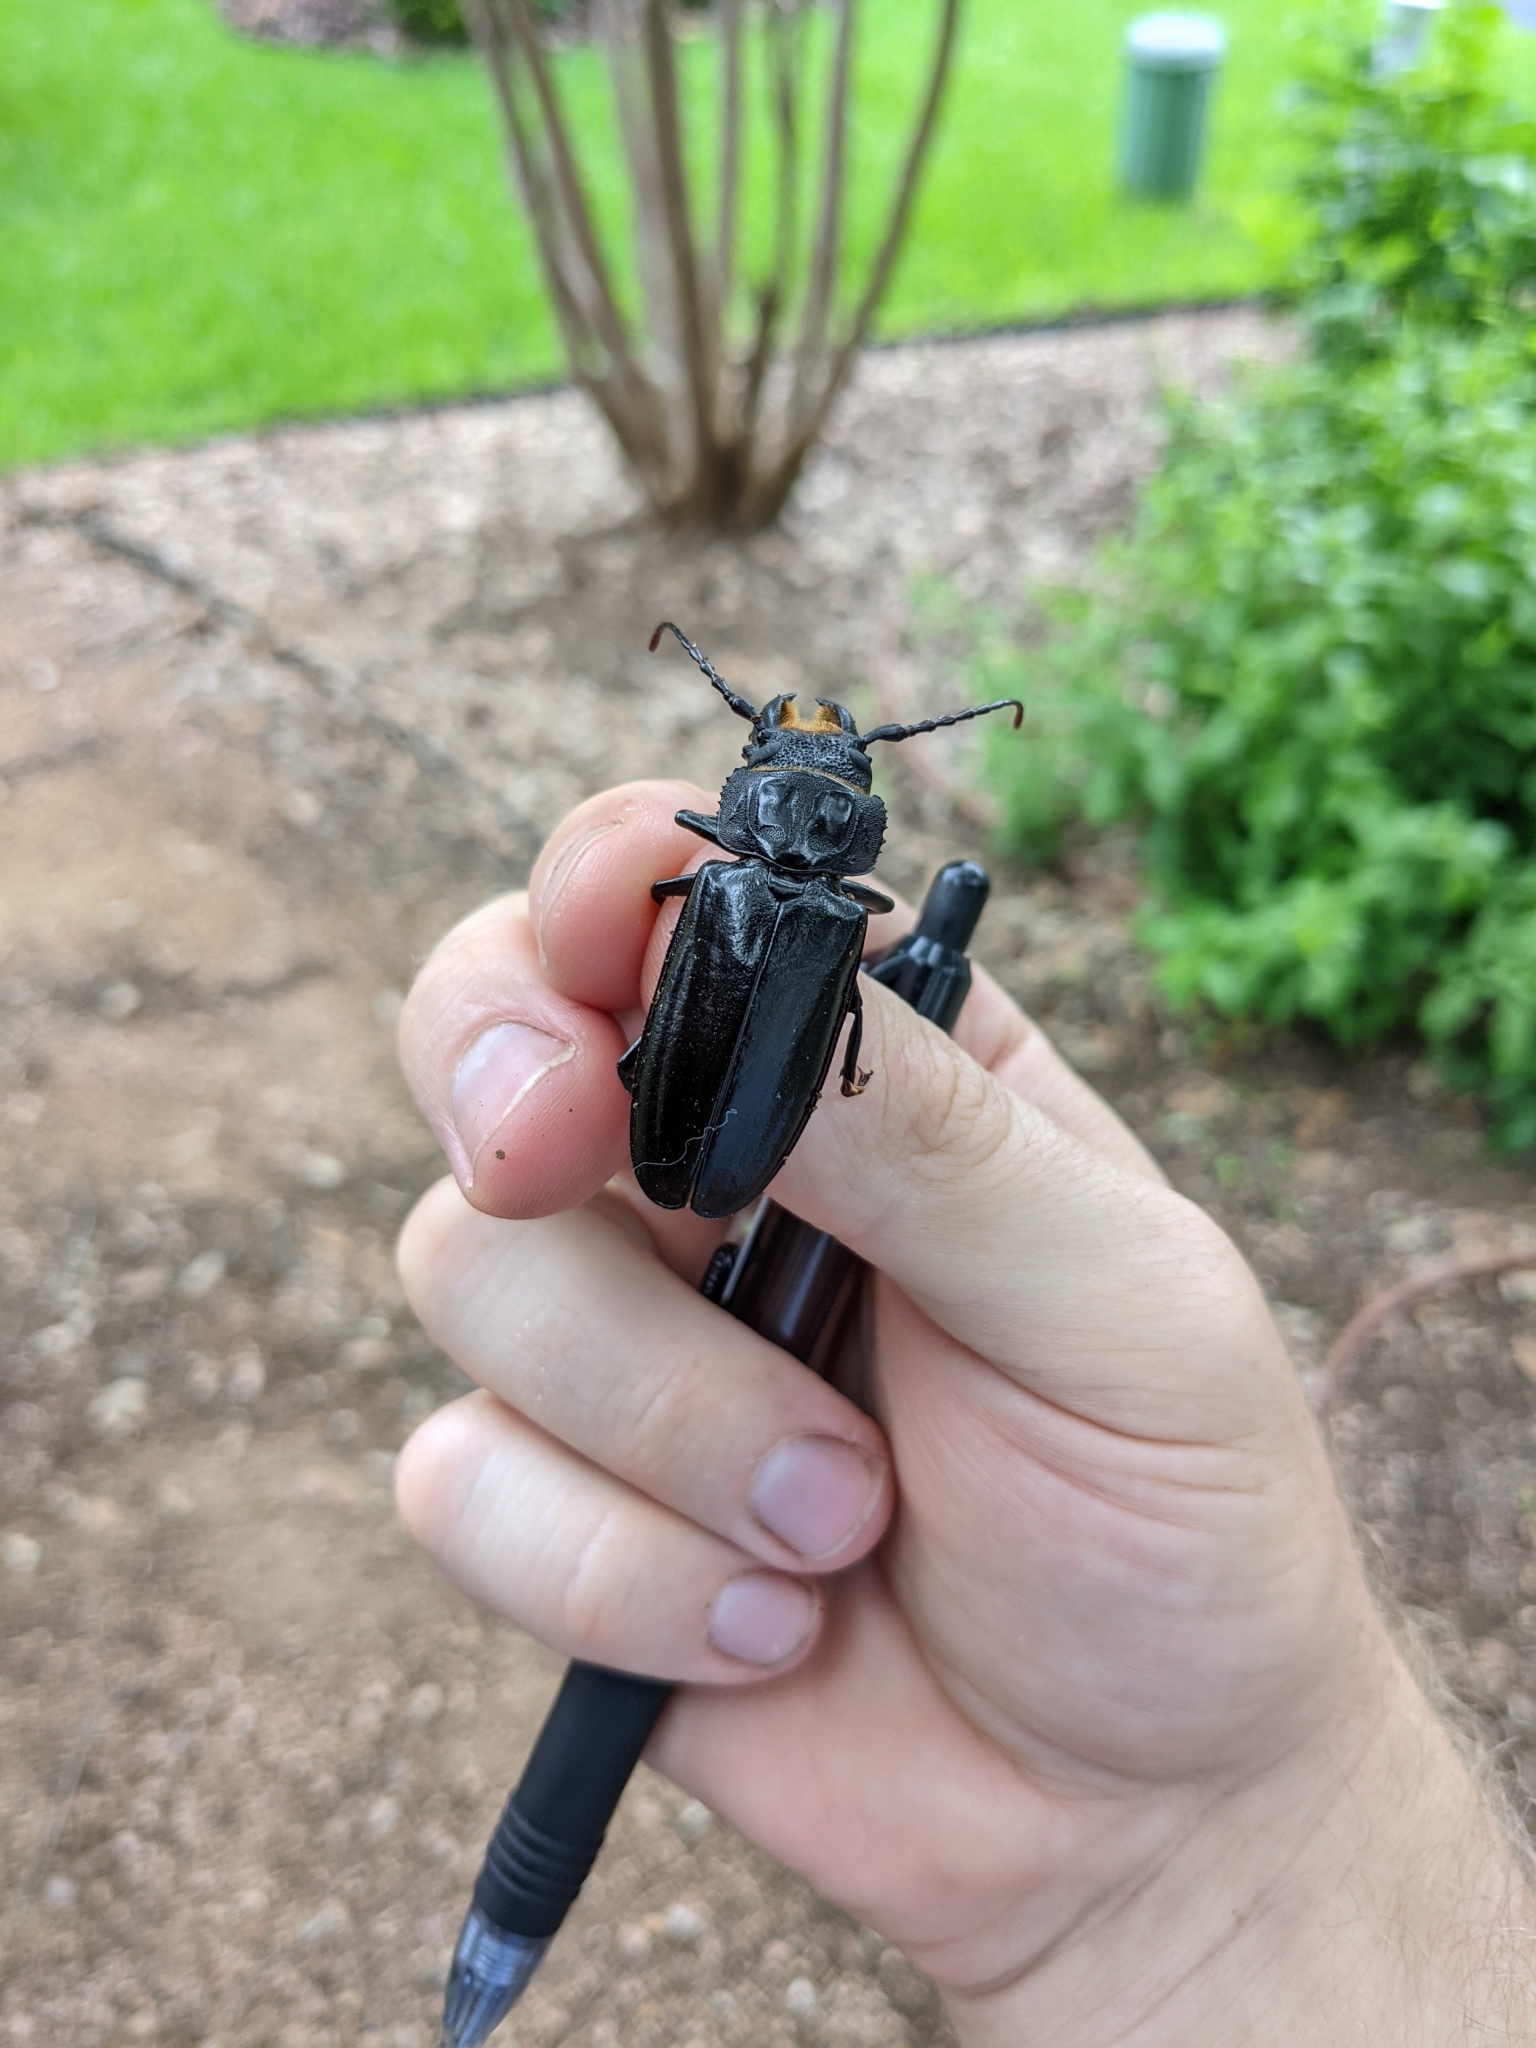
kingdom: Animalia
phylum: Arthropoda
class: Insecta
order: Coleoptera
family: Cerambycidae
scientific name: Cerambycidae
